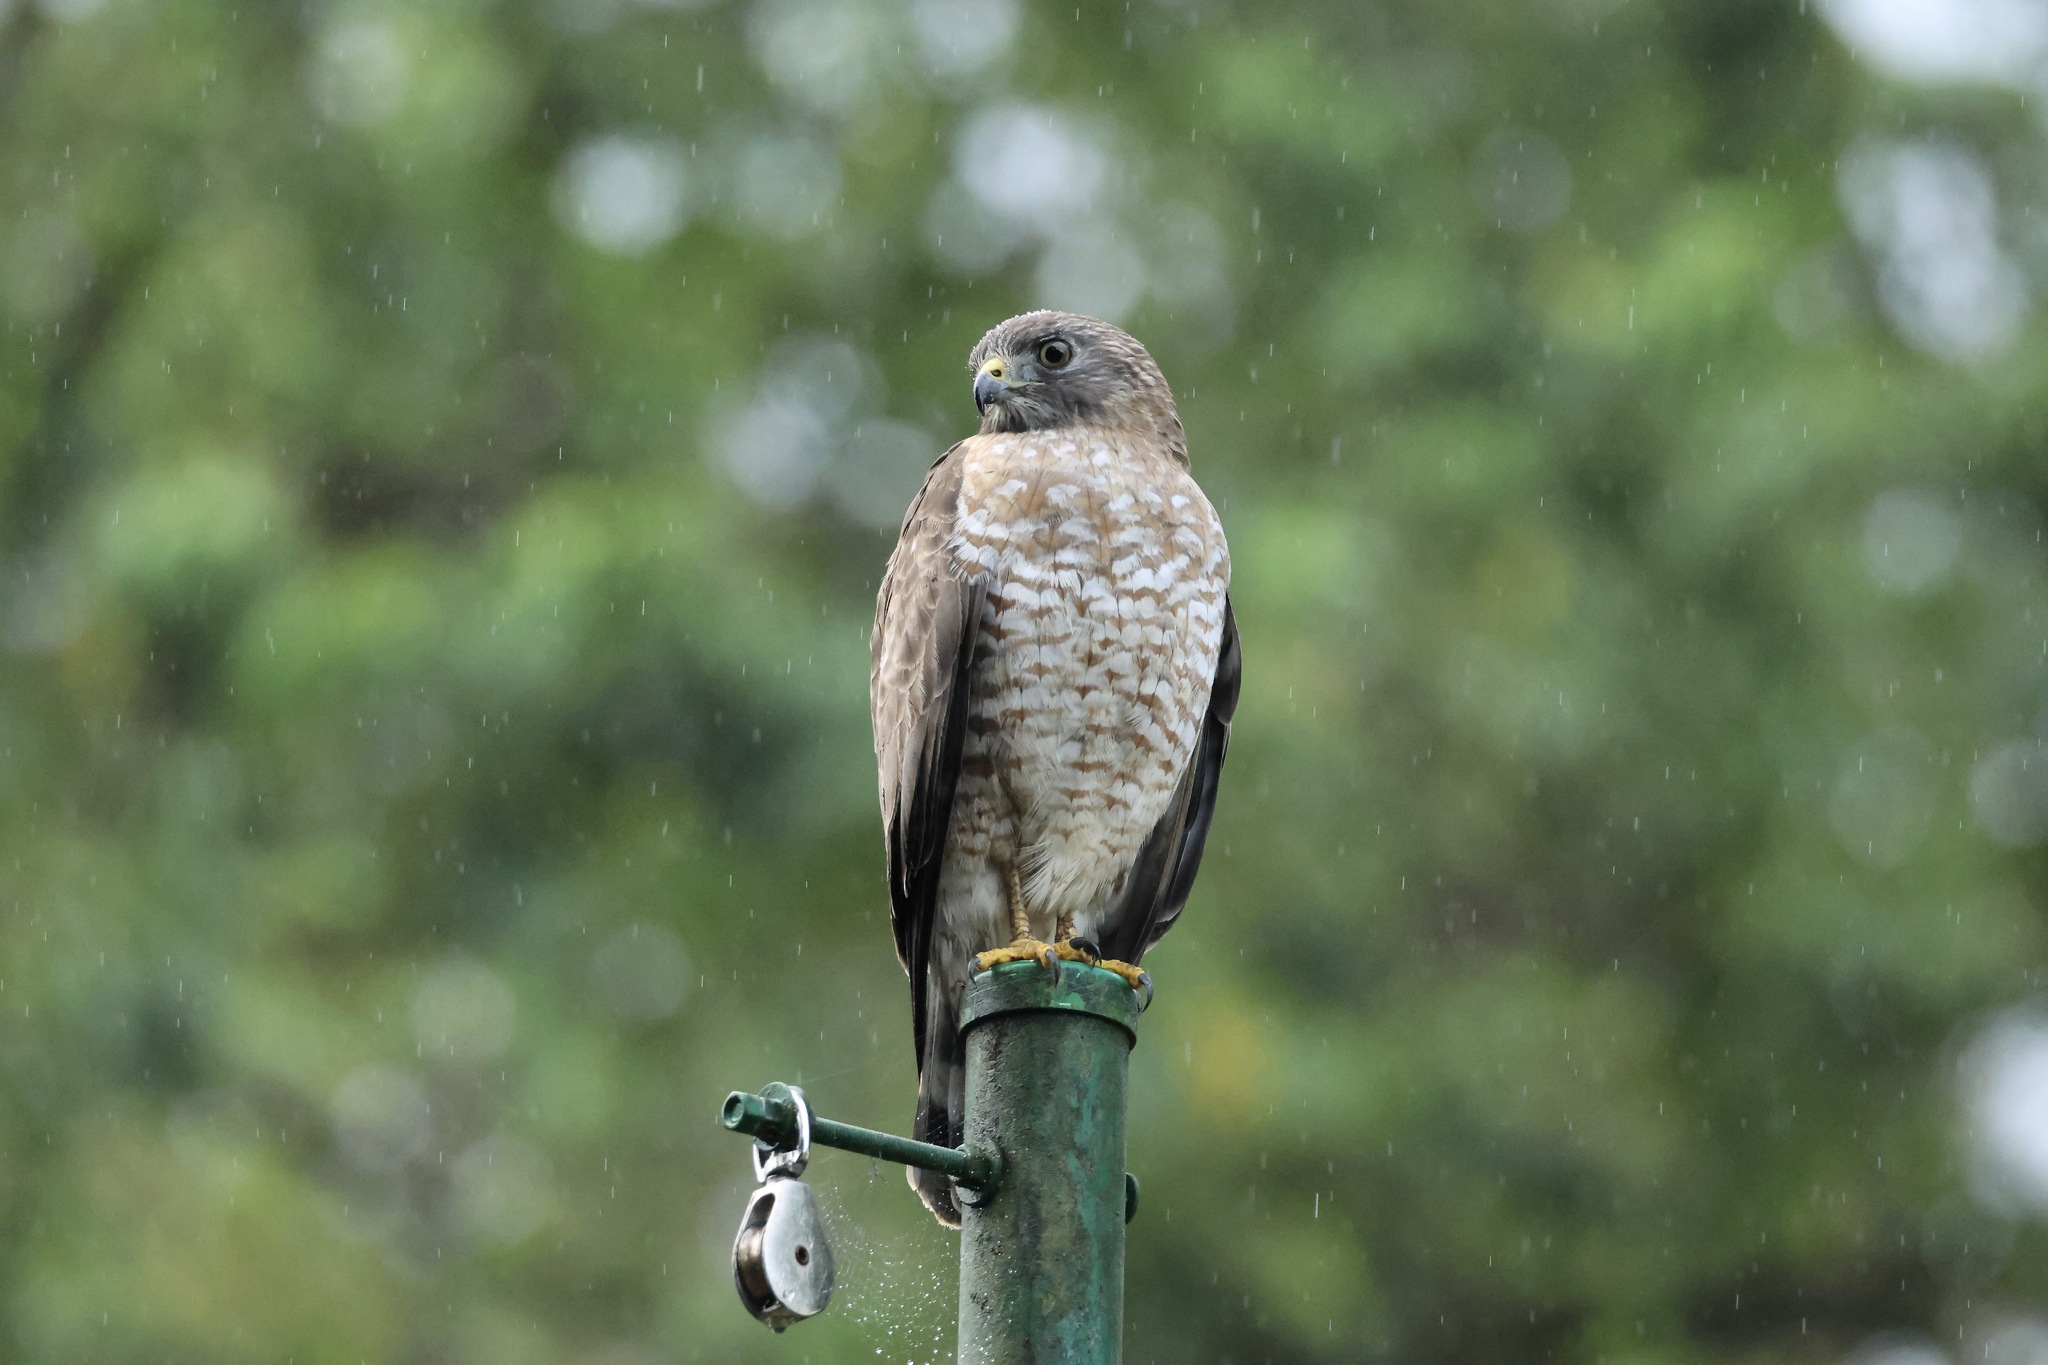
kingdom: Animalia
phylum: Chordata
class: Aves
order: Accipitriformes
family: Accipitridae
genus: Buteo
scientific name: Buteo platypterus
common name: Broad-winged hawk
